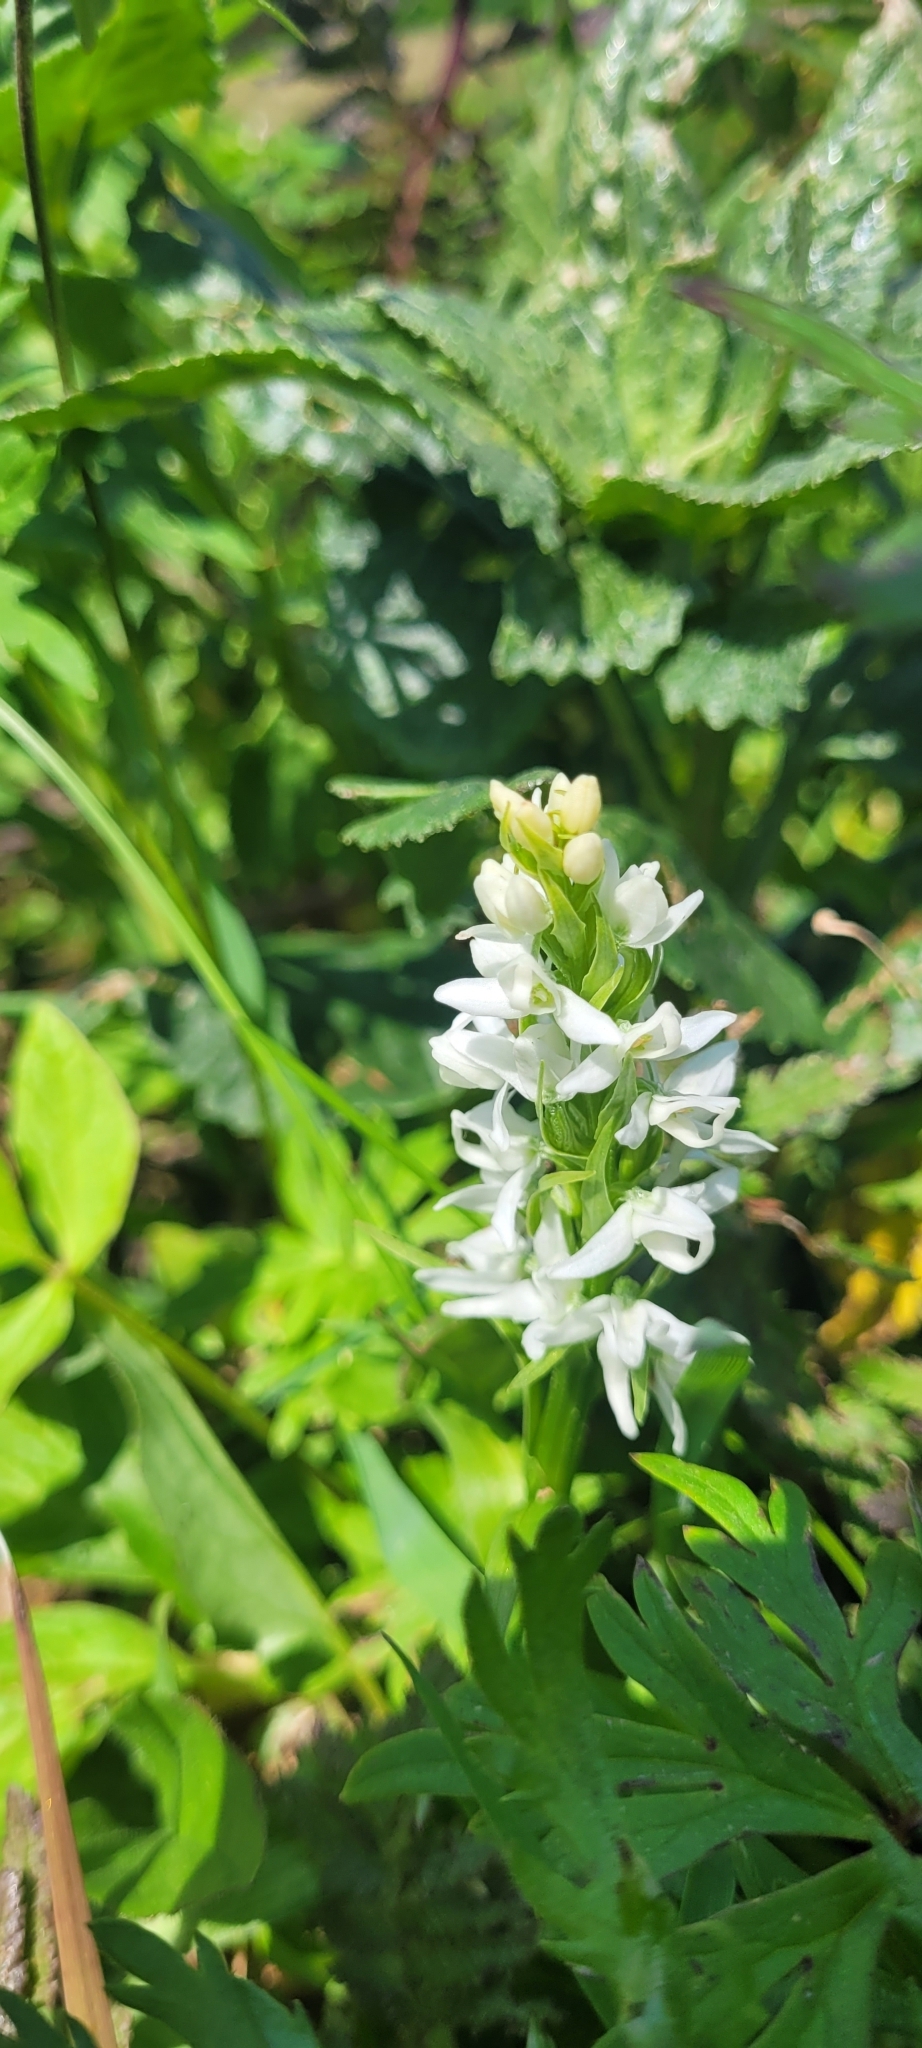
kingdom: Plantae
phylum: Tracheophyta
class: Liliopsida
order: Asparagales
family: Orchidaceae
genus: Platanthera
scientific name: Platanthera dilatata
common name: Bog candles
